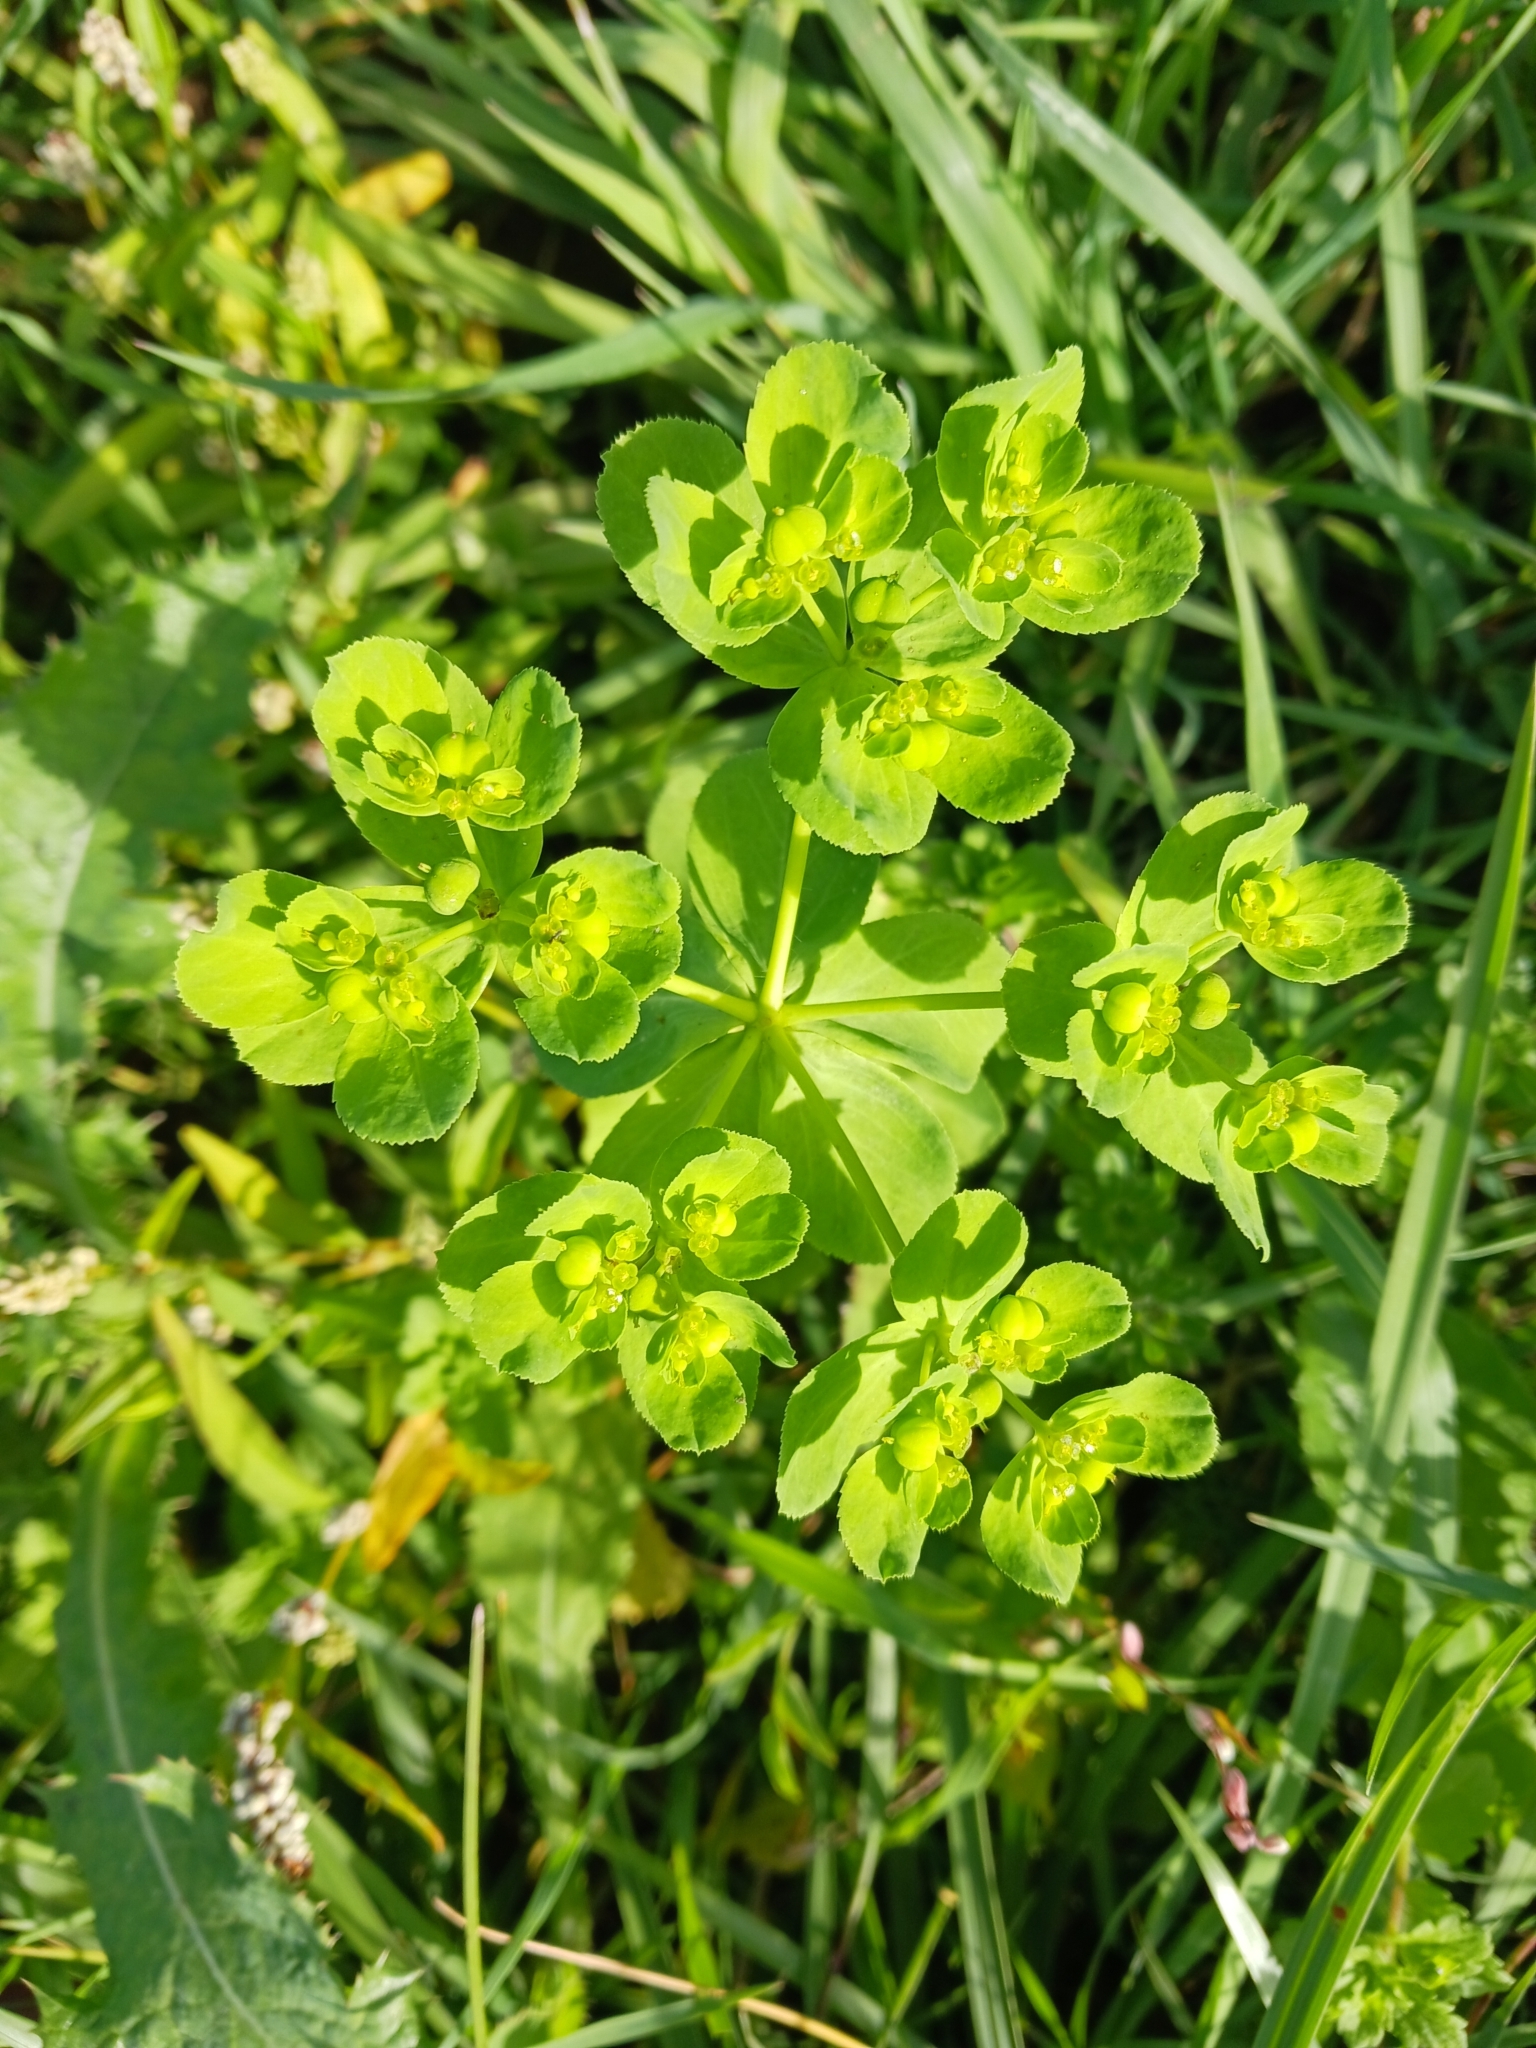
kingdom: Plantae
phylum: Tracheophyta
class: Magnoliopsida
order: Malpighiales
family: Euphorbiaceae
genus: Euphorbia
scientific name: Euphorbia helioscopia
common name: Sun spurge
